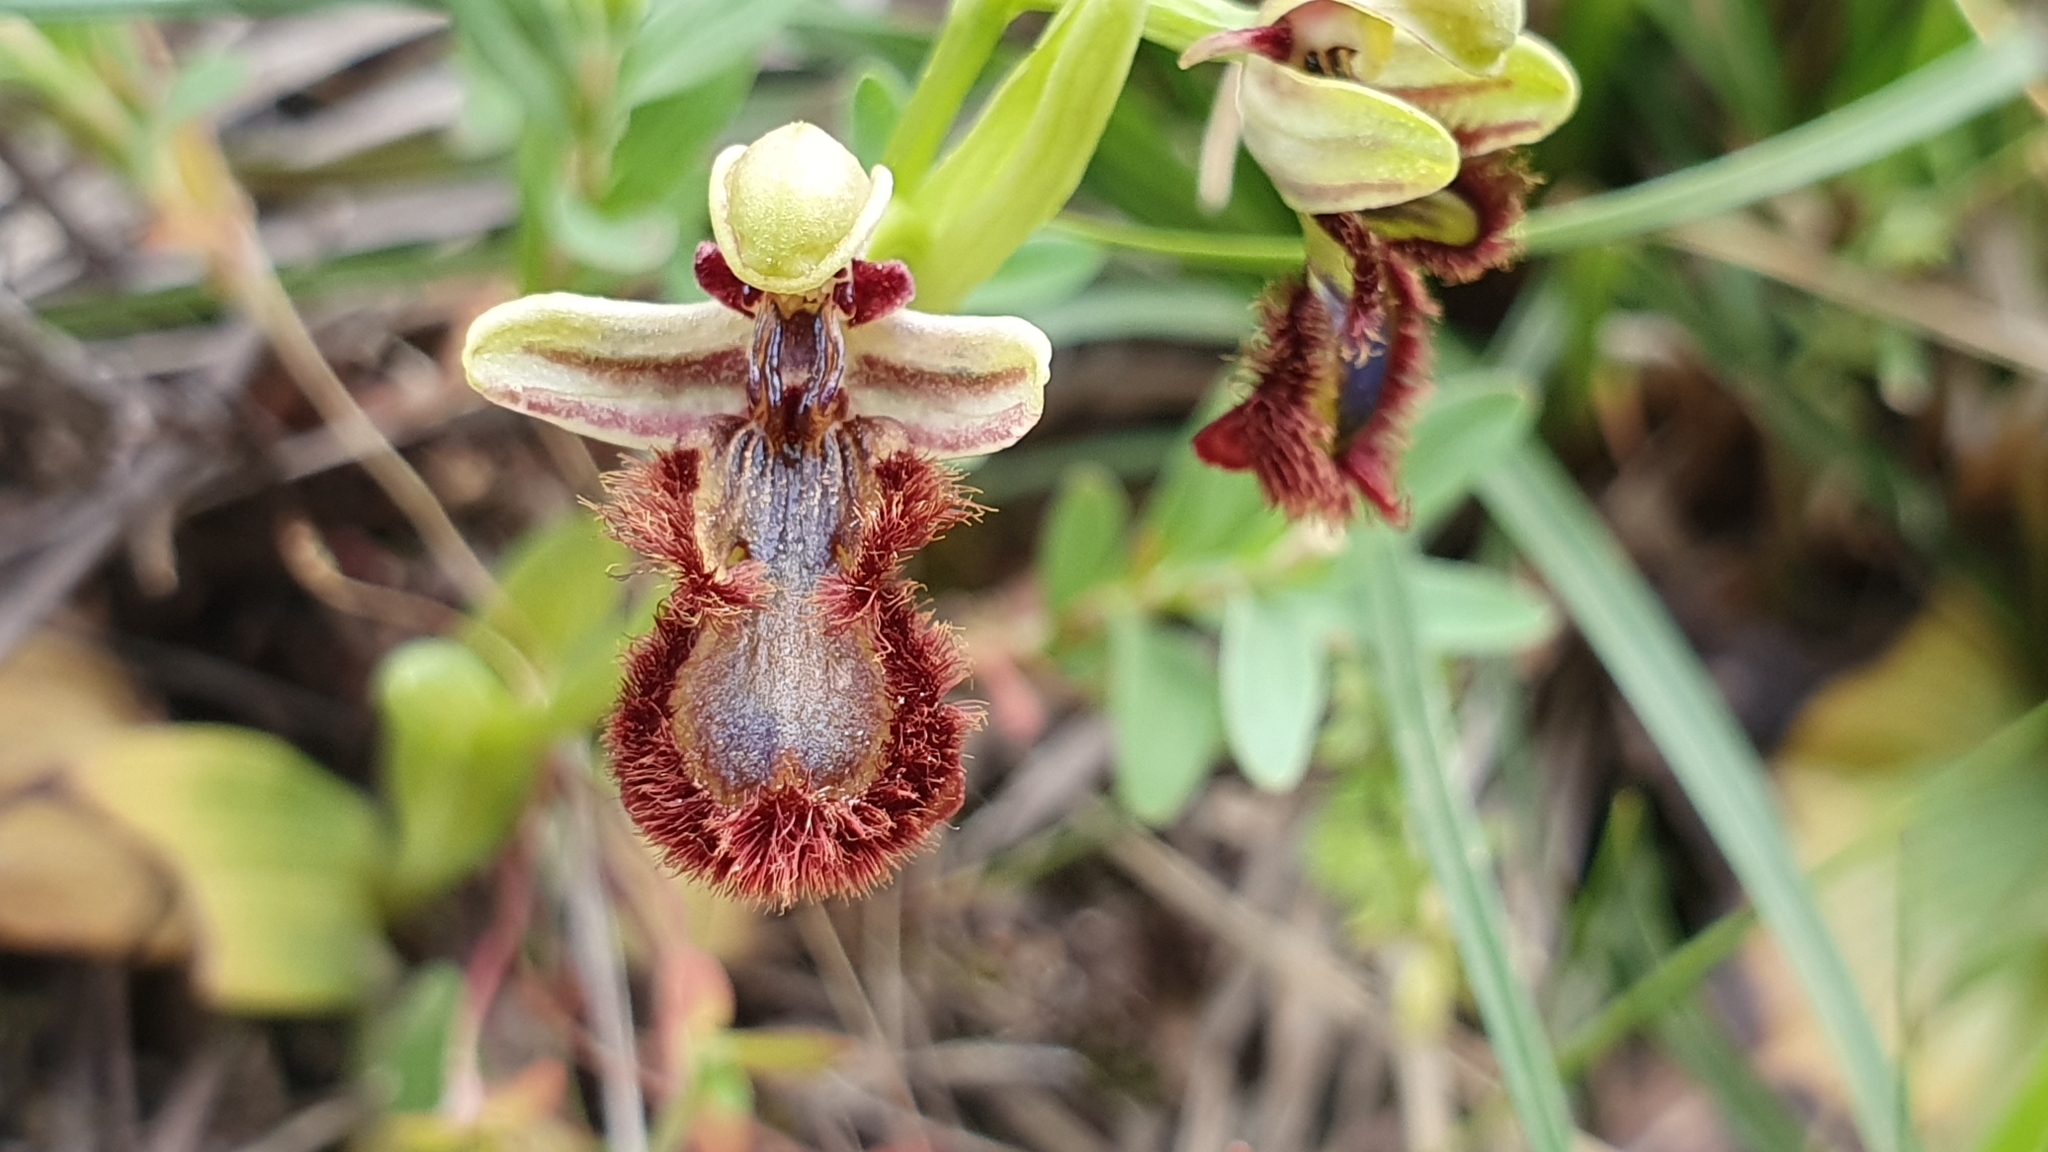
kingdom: Plantae
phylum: Tracheophyta
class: Liliopsida
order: Asparagales
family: Orchidaceae
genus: Ophrys
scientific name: Ophrys speculum
